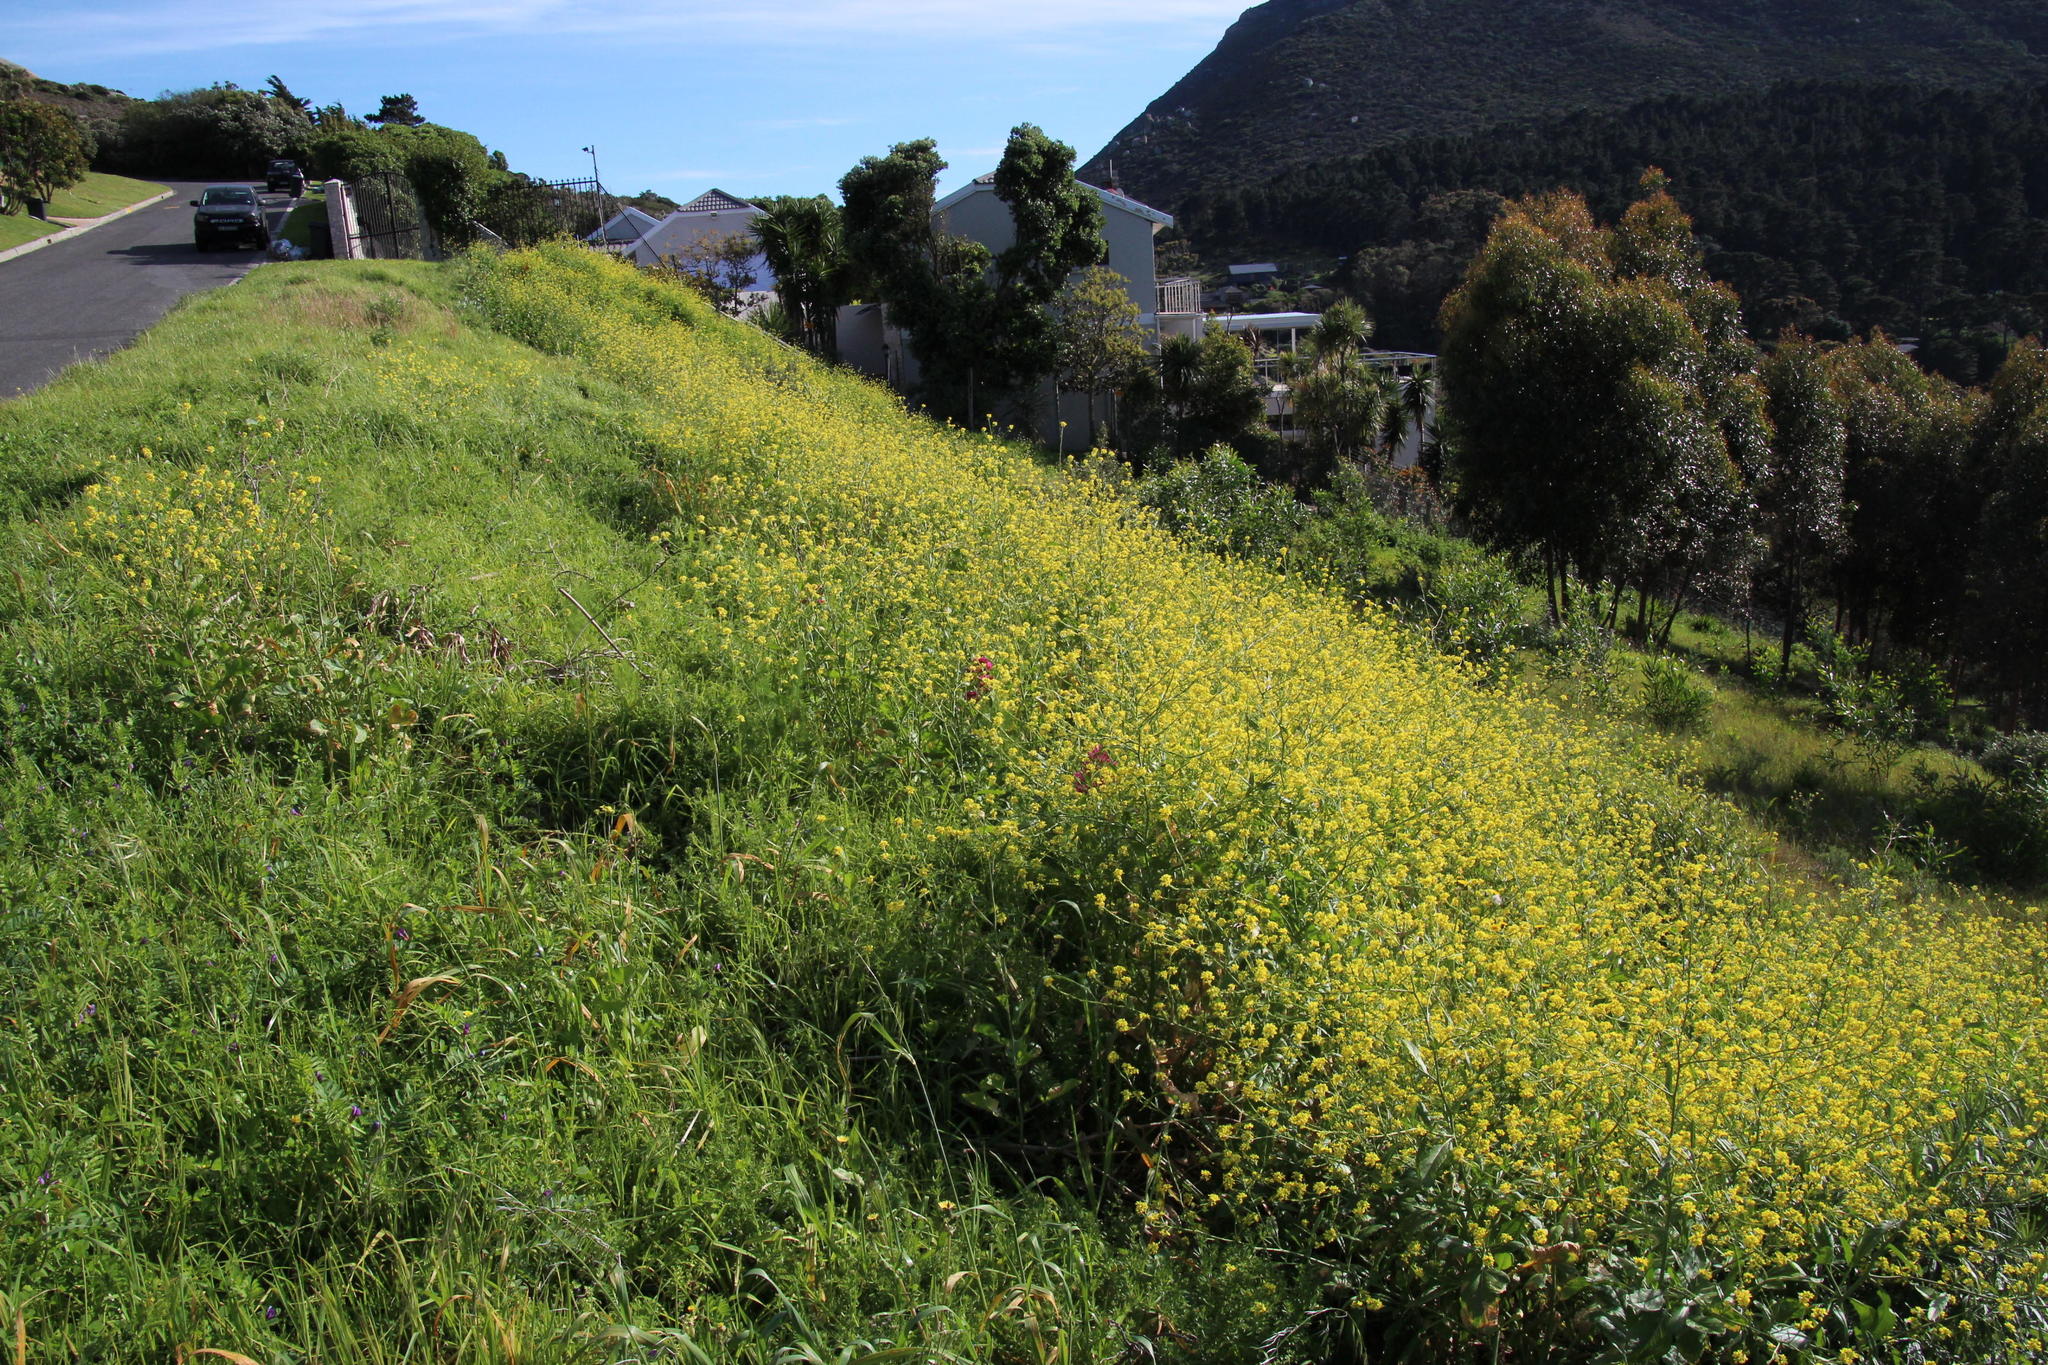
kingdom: Plantae
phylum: Tracheophyta
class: Magnoliopsida
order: Brassicales
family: Brassicaceae
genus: Rapistrum
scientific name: Rapistrum rugosum
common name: Annual bastardcabbage
